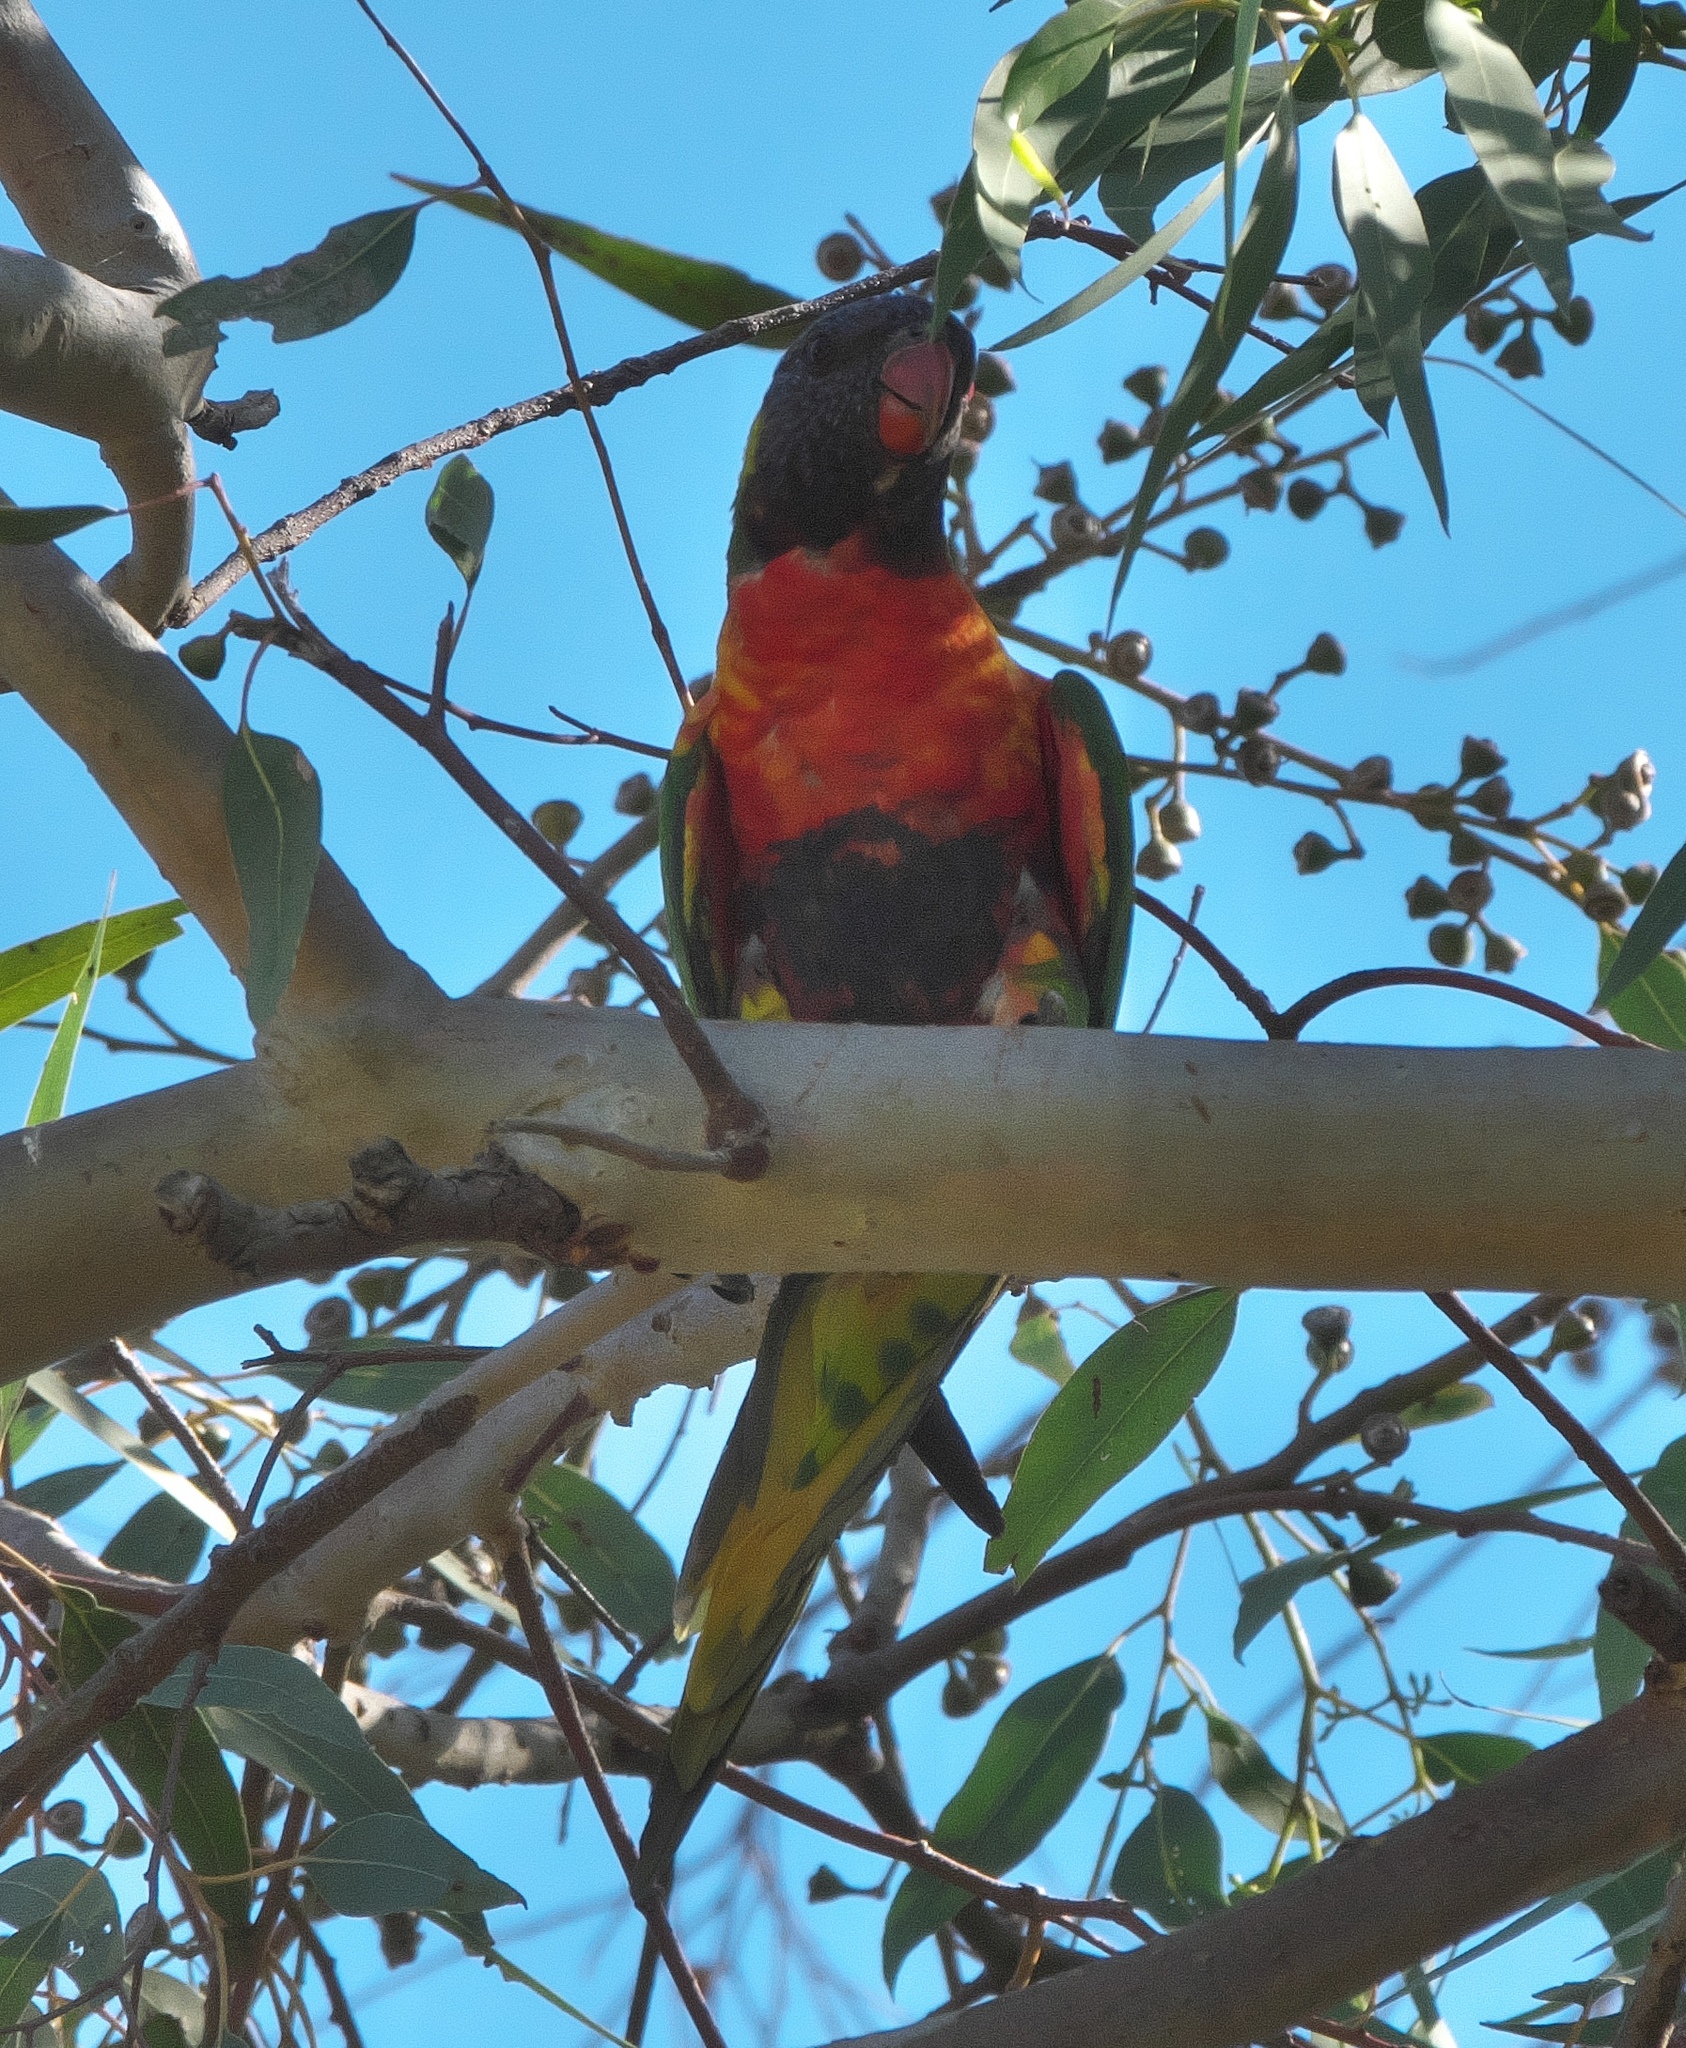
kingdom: Animalia
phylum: Chordata
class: Aves
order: Psittaciformes
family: Psittacidae
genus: Trichoglossus
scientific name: Trichoglossus haematodus
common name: Coconut lorikeet
